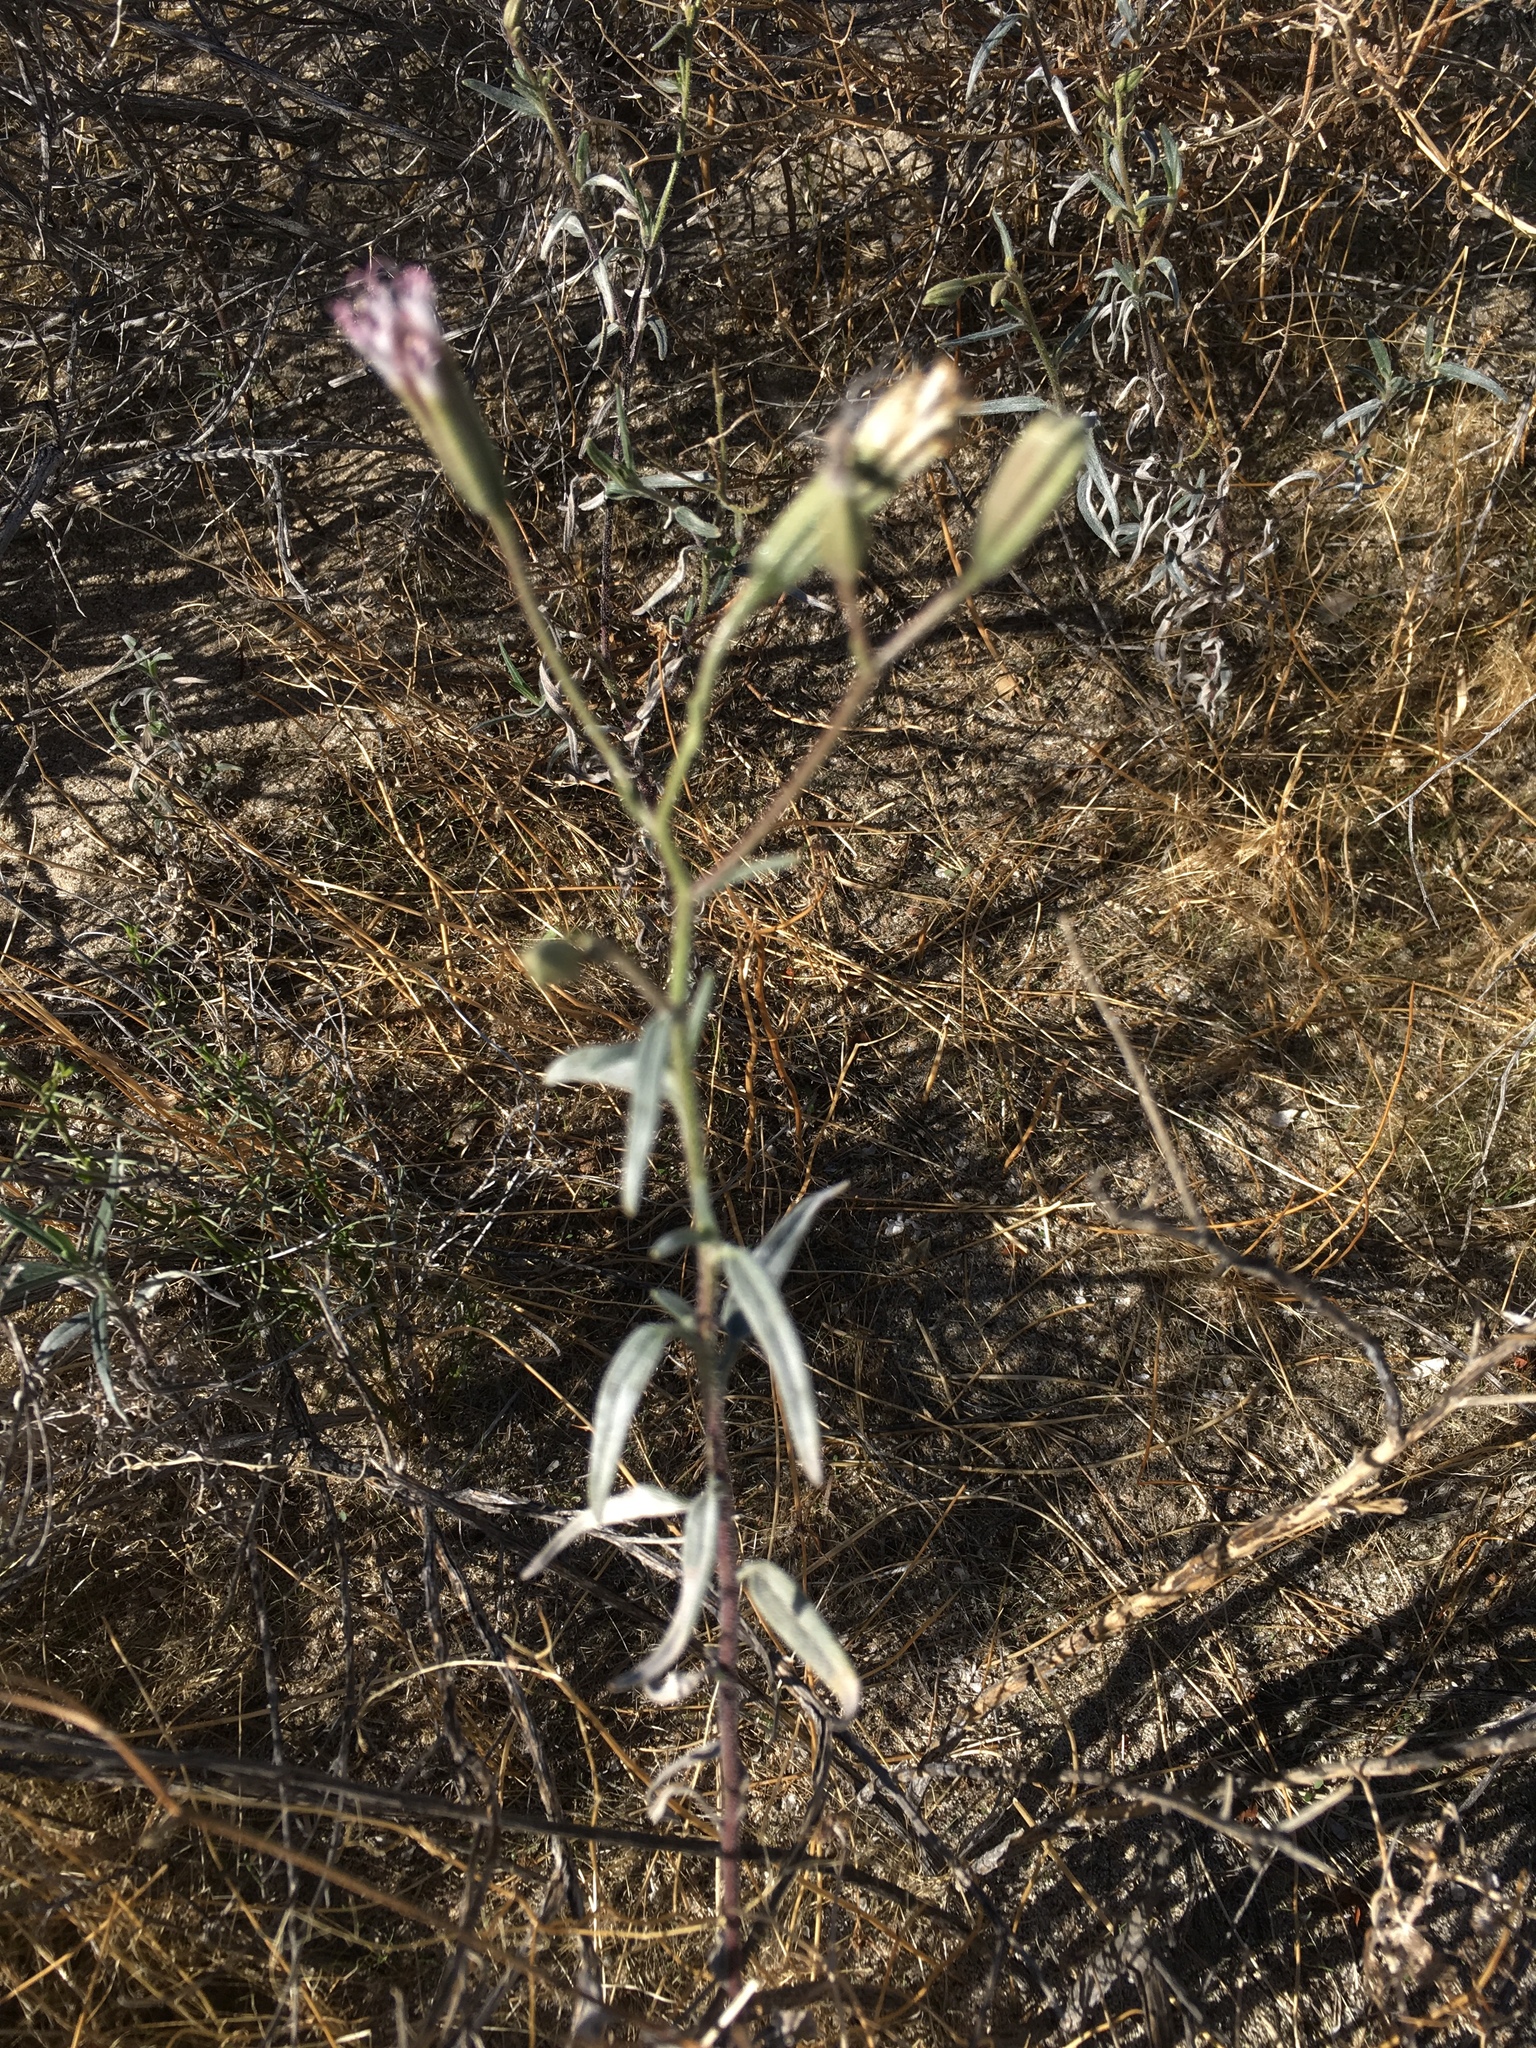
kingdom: Plantae
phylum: Tracheophyta
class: Magnoliopsida
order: Asterales
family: Asteraceae
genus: Palafoxia
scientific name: Palafoxia arida
